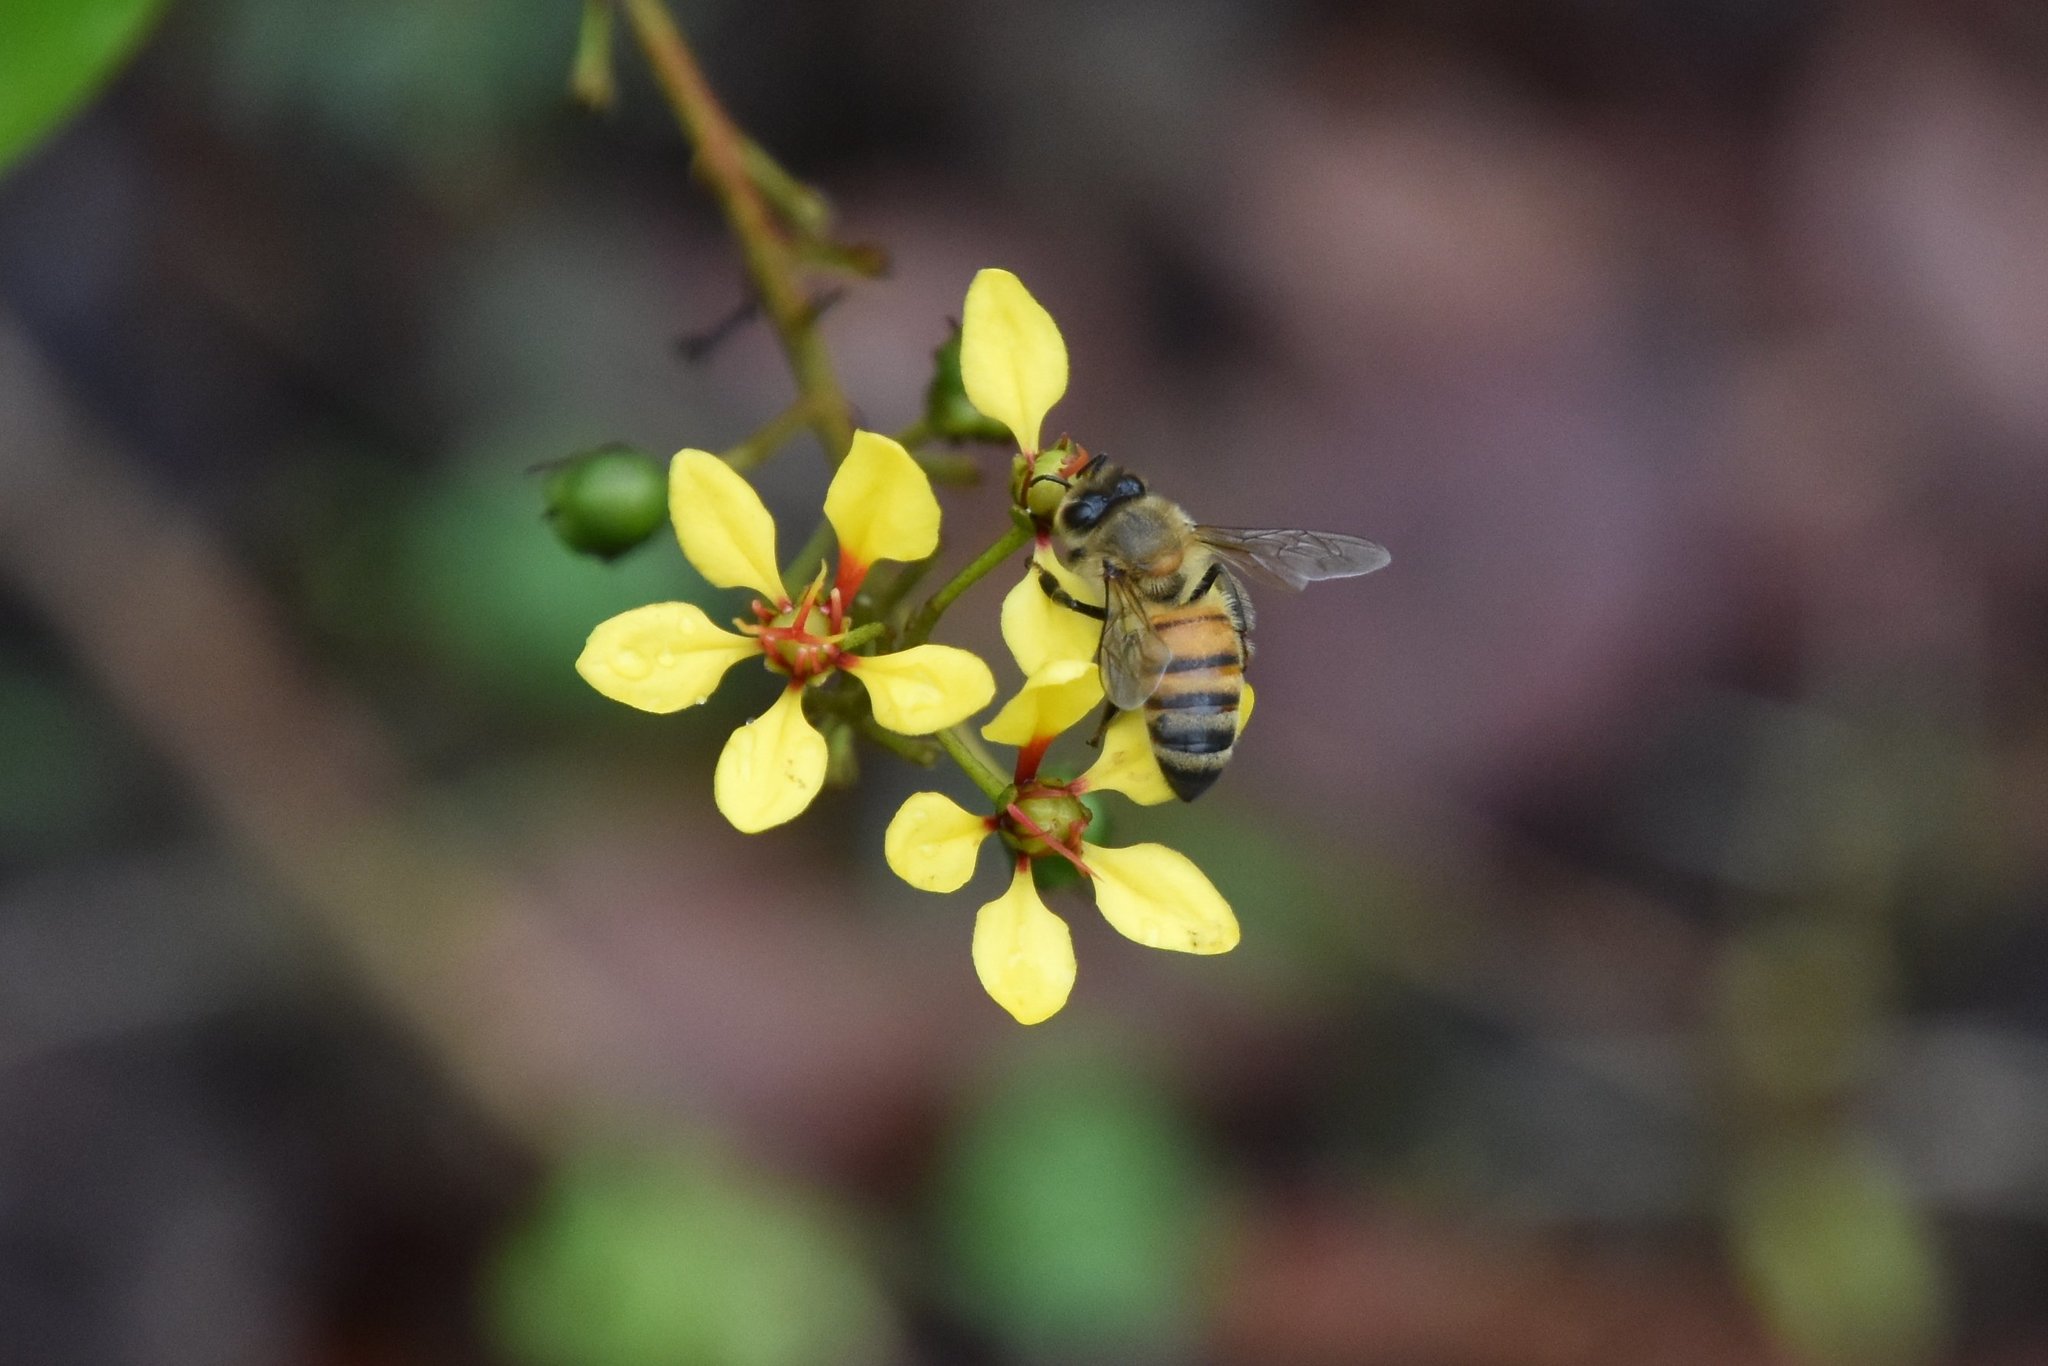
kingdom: Animalia
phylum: Arthropoda
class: Insecta
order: Hymenoptera
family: Apidae
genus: Apis
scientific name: Apis mellifera
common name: Honey bee
